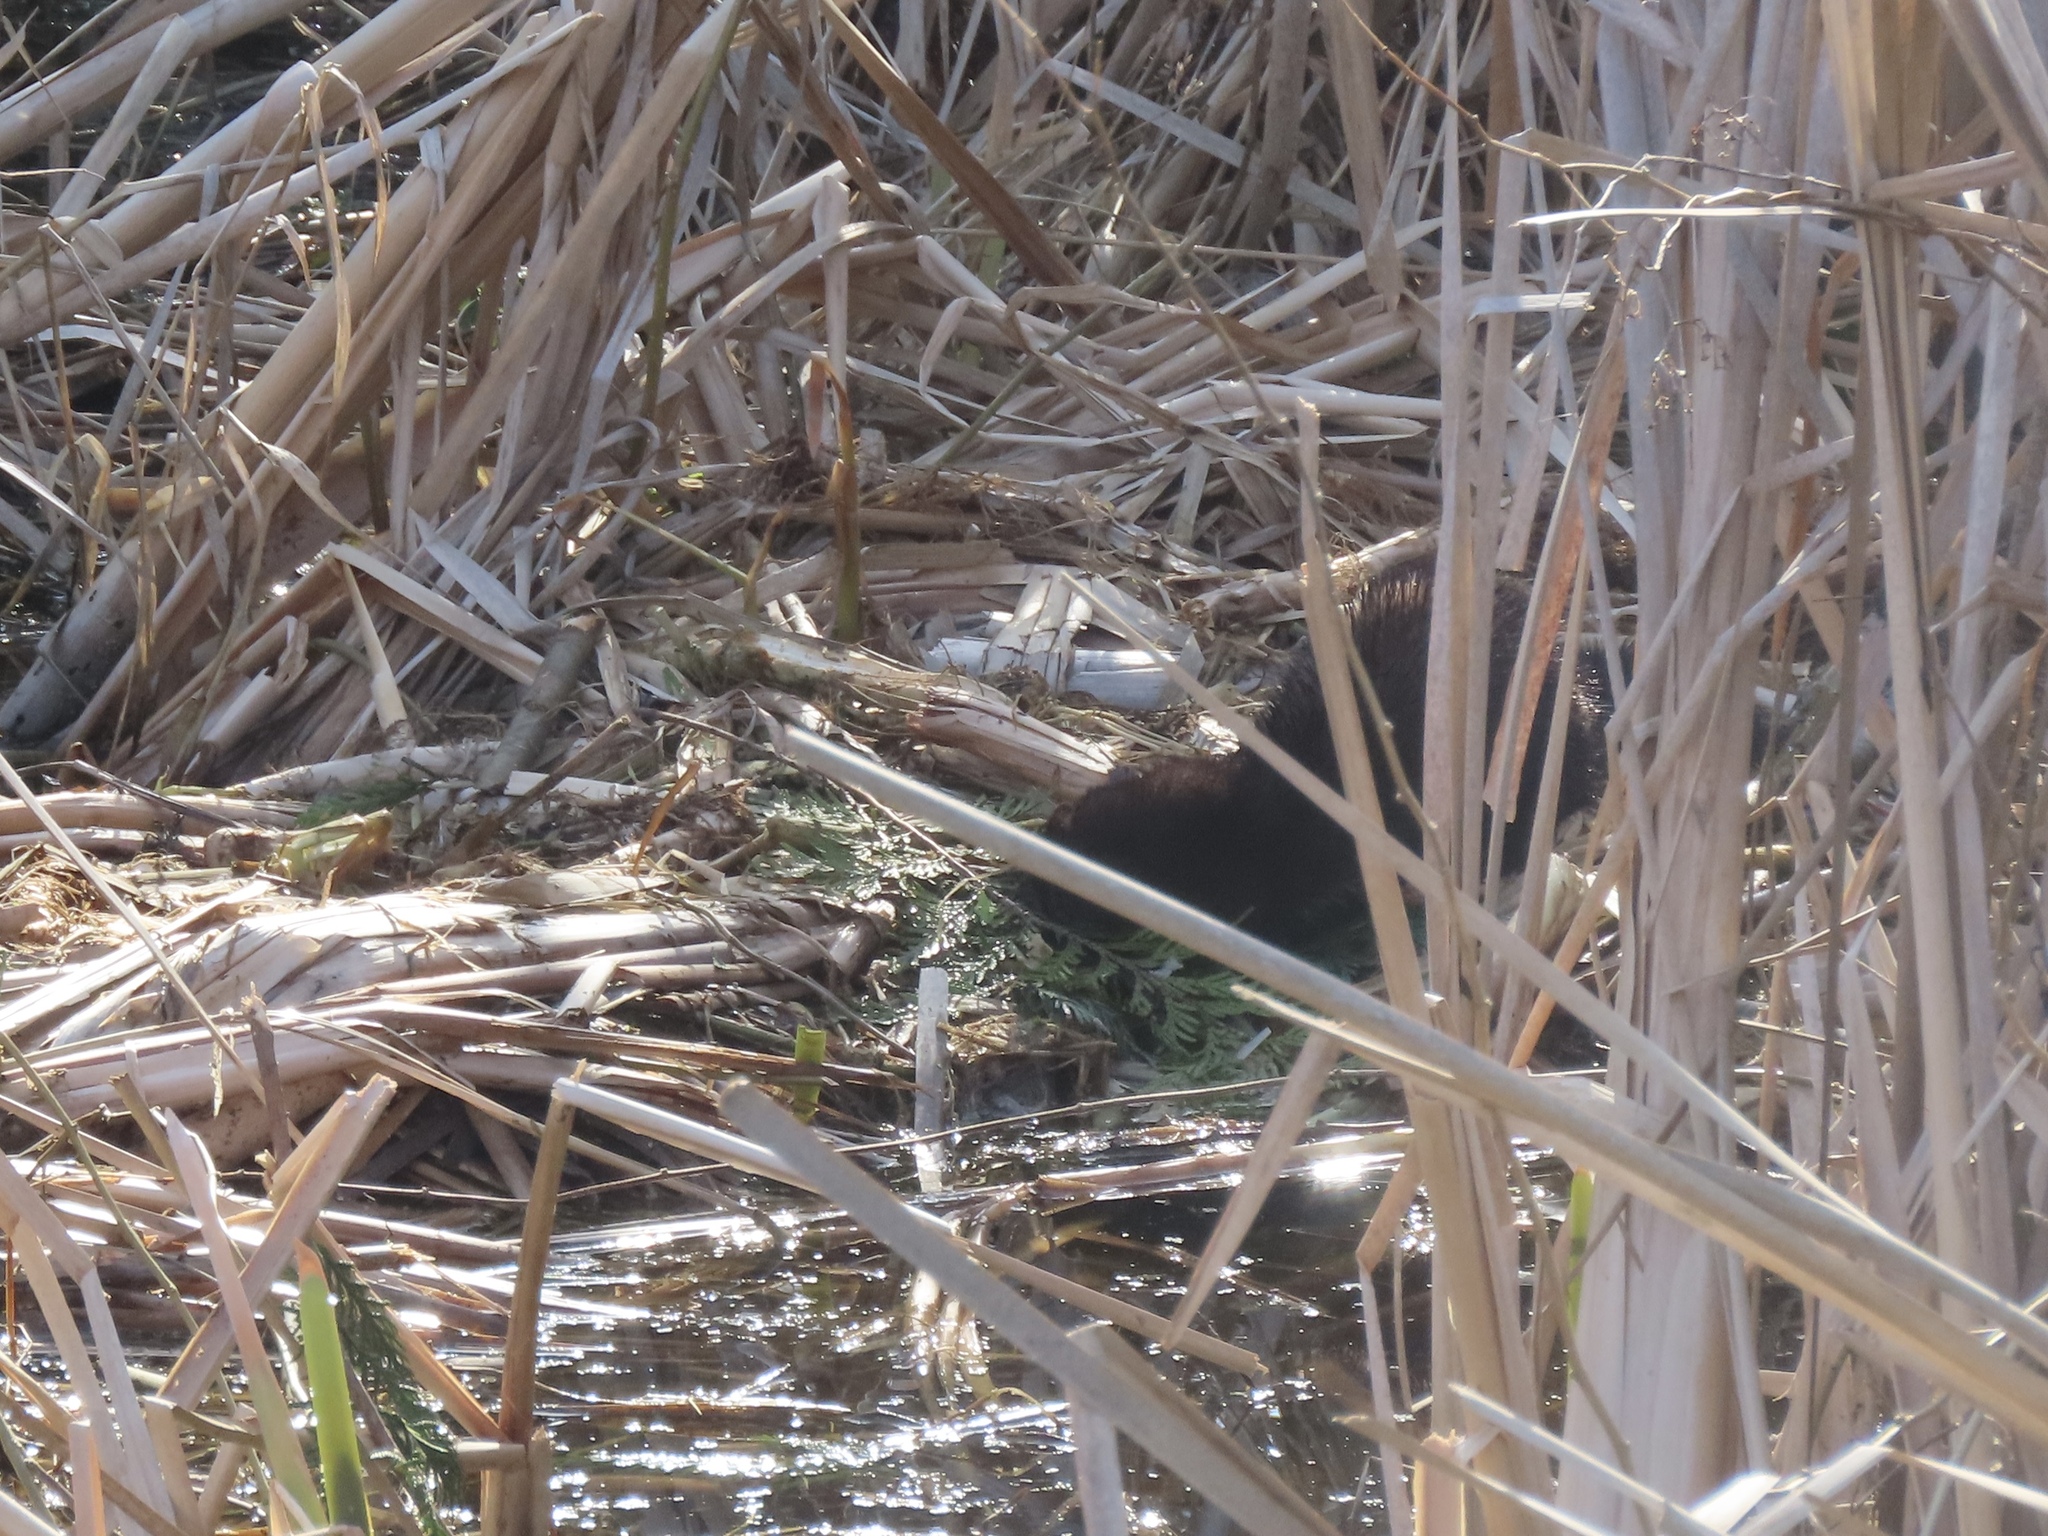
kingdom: Animalia
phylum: Chordata
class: Mammalia
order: Carnivora
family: Mustelidae
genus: Mustela
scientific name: Mustela
